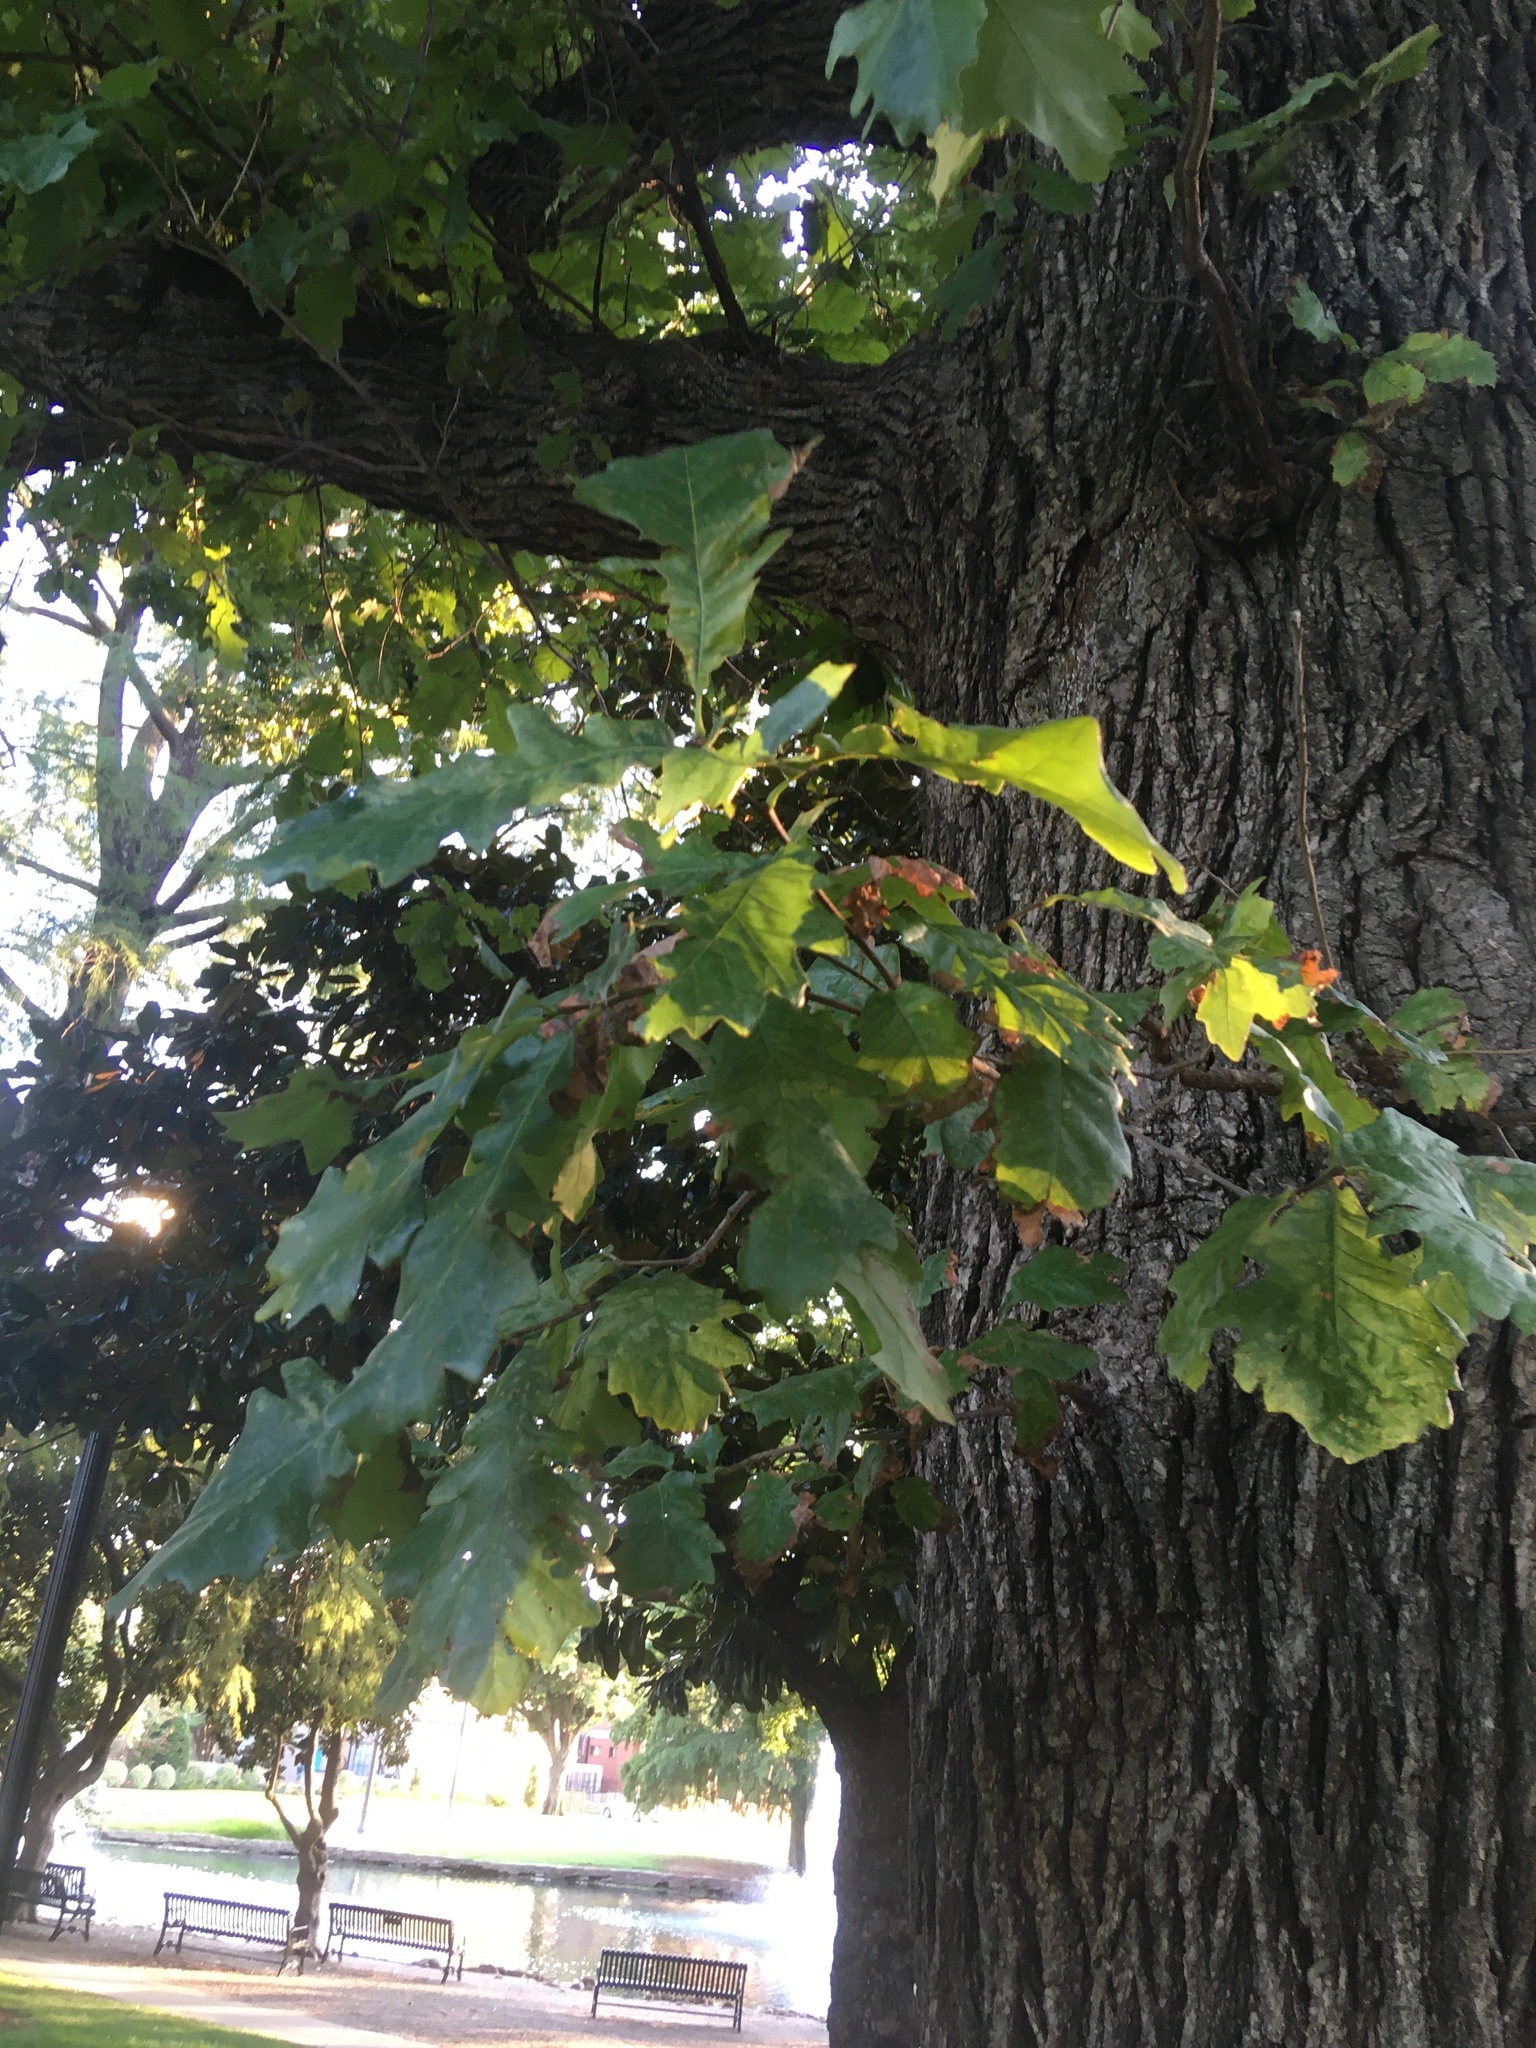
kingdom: Plantae
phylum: Tracheophyta
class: Magnoliopsida
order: Fagales
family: Fagaceae
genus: Quercus
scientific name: Quercus macrocarpa
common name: Bur oak
